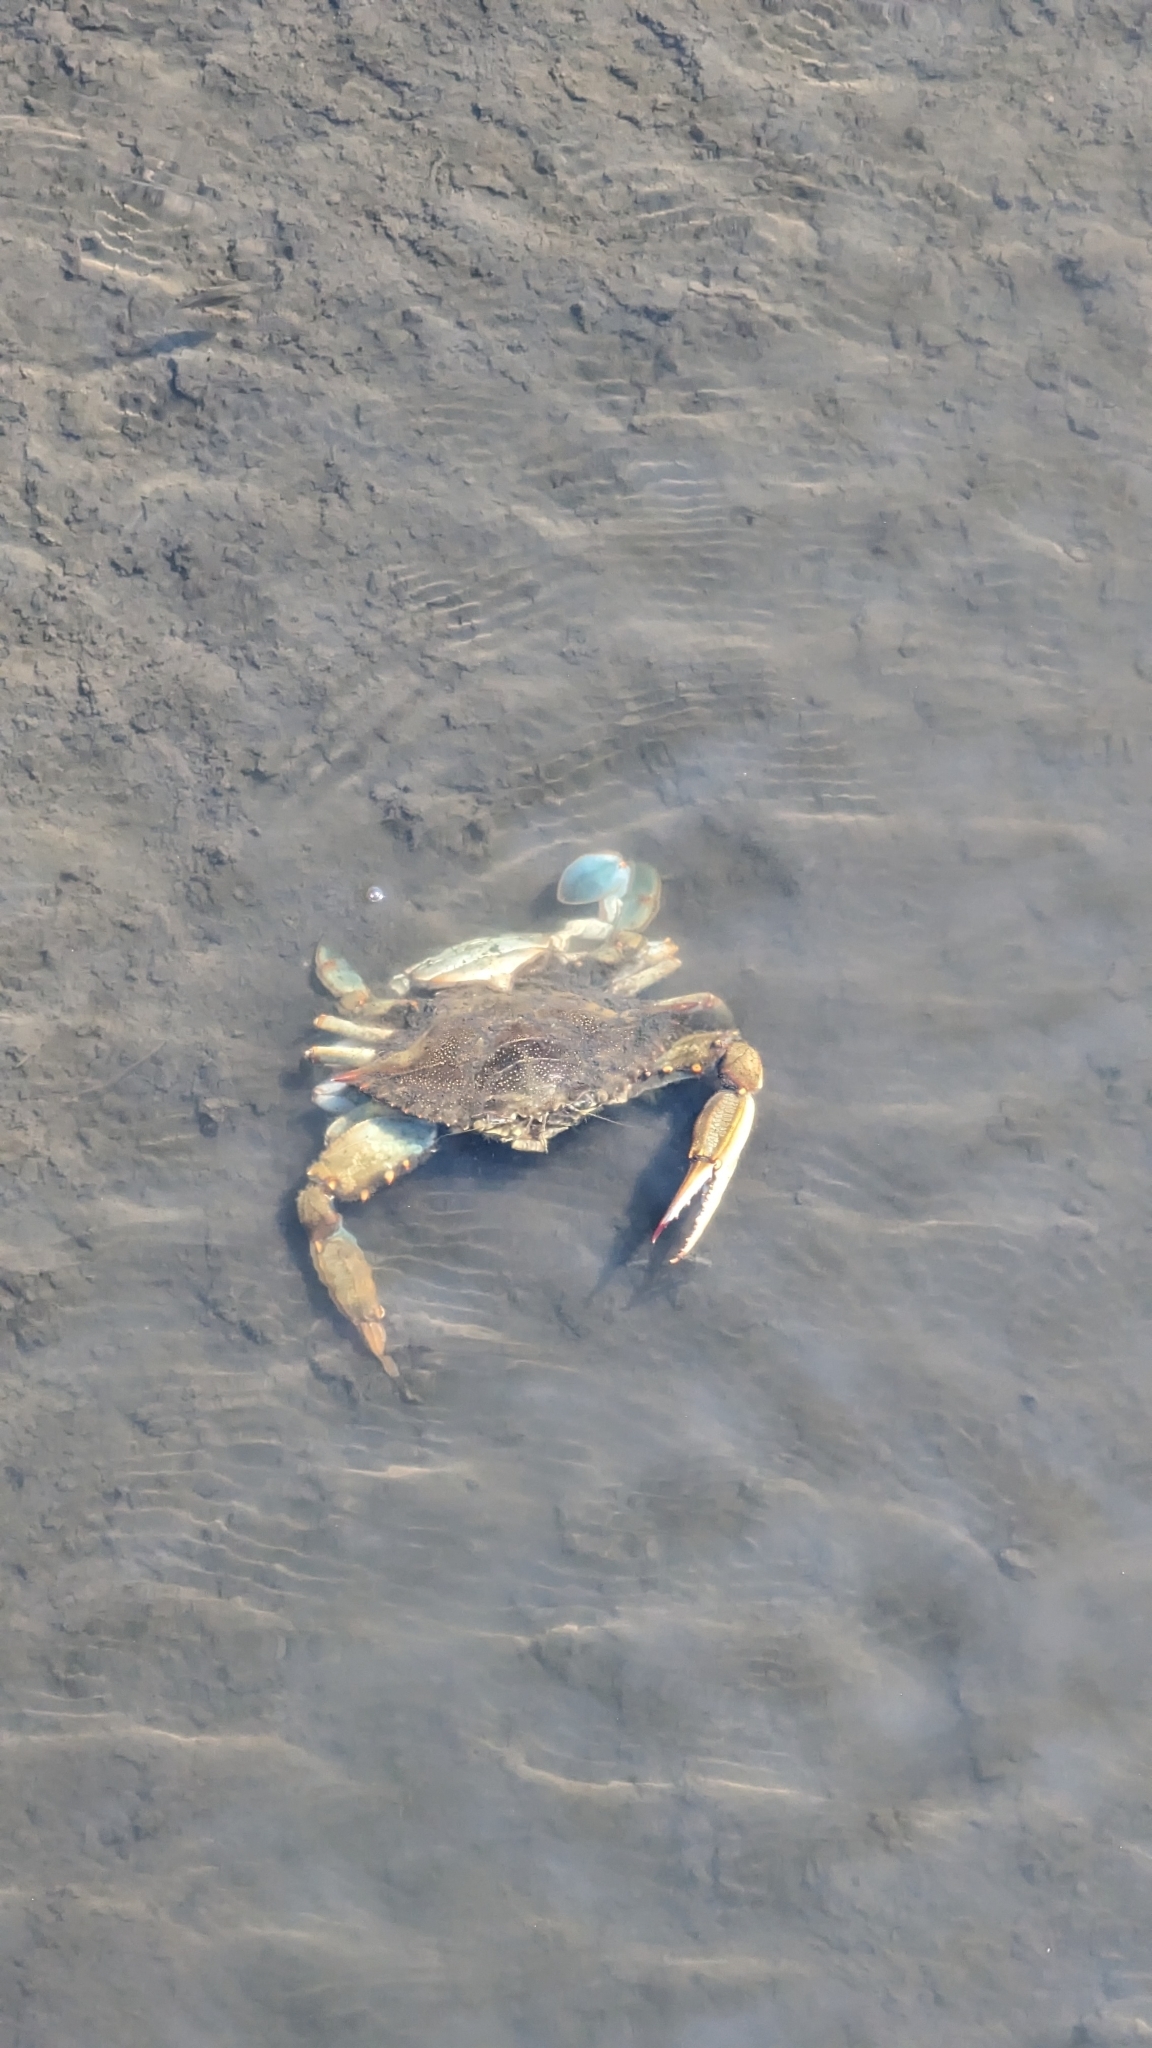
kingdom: Animalia
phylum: Arthropoda
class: Malacostraca
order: Decapoda
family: Portunidae
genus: Callinectes
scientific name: Callinectes sapidus
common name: Blue crab
